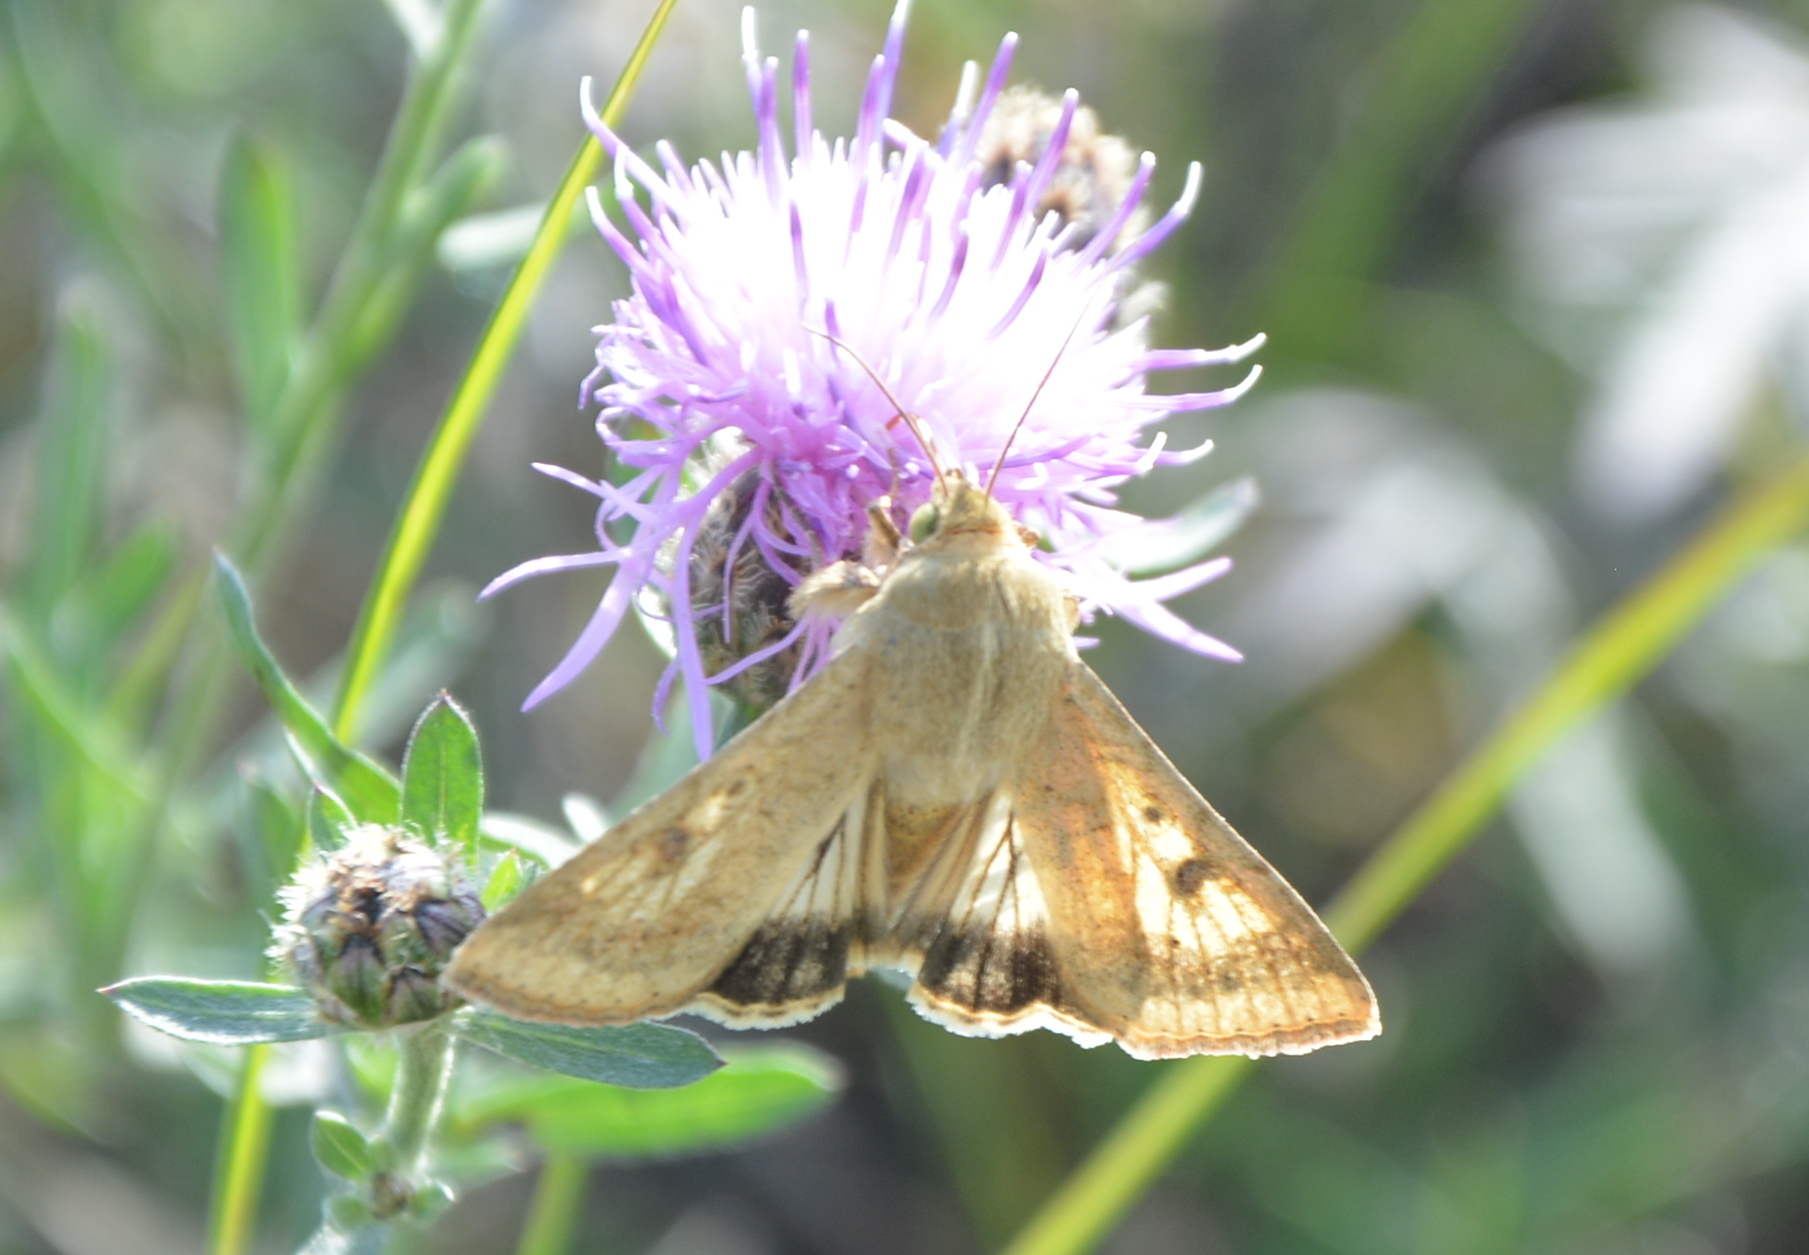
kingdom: Animalia
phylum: Arthropoda
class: Insecta
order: Lepidoptera
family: Noctuidae
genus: Helicoverpa
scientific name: Helicoverpa armigera
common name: Cotton bollworm
